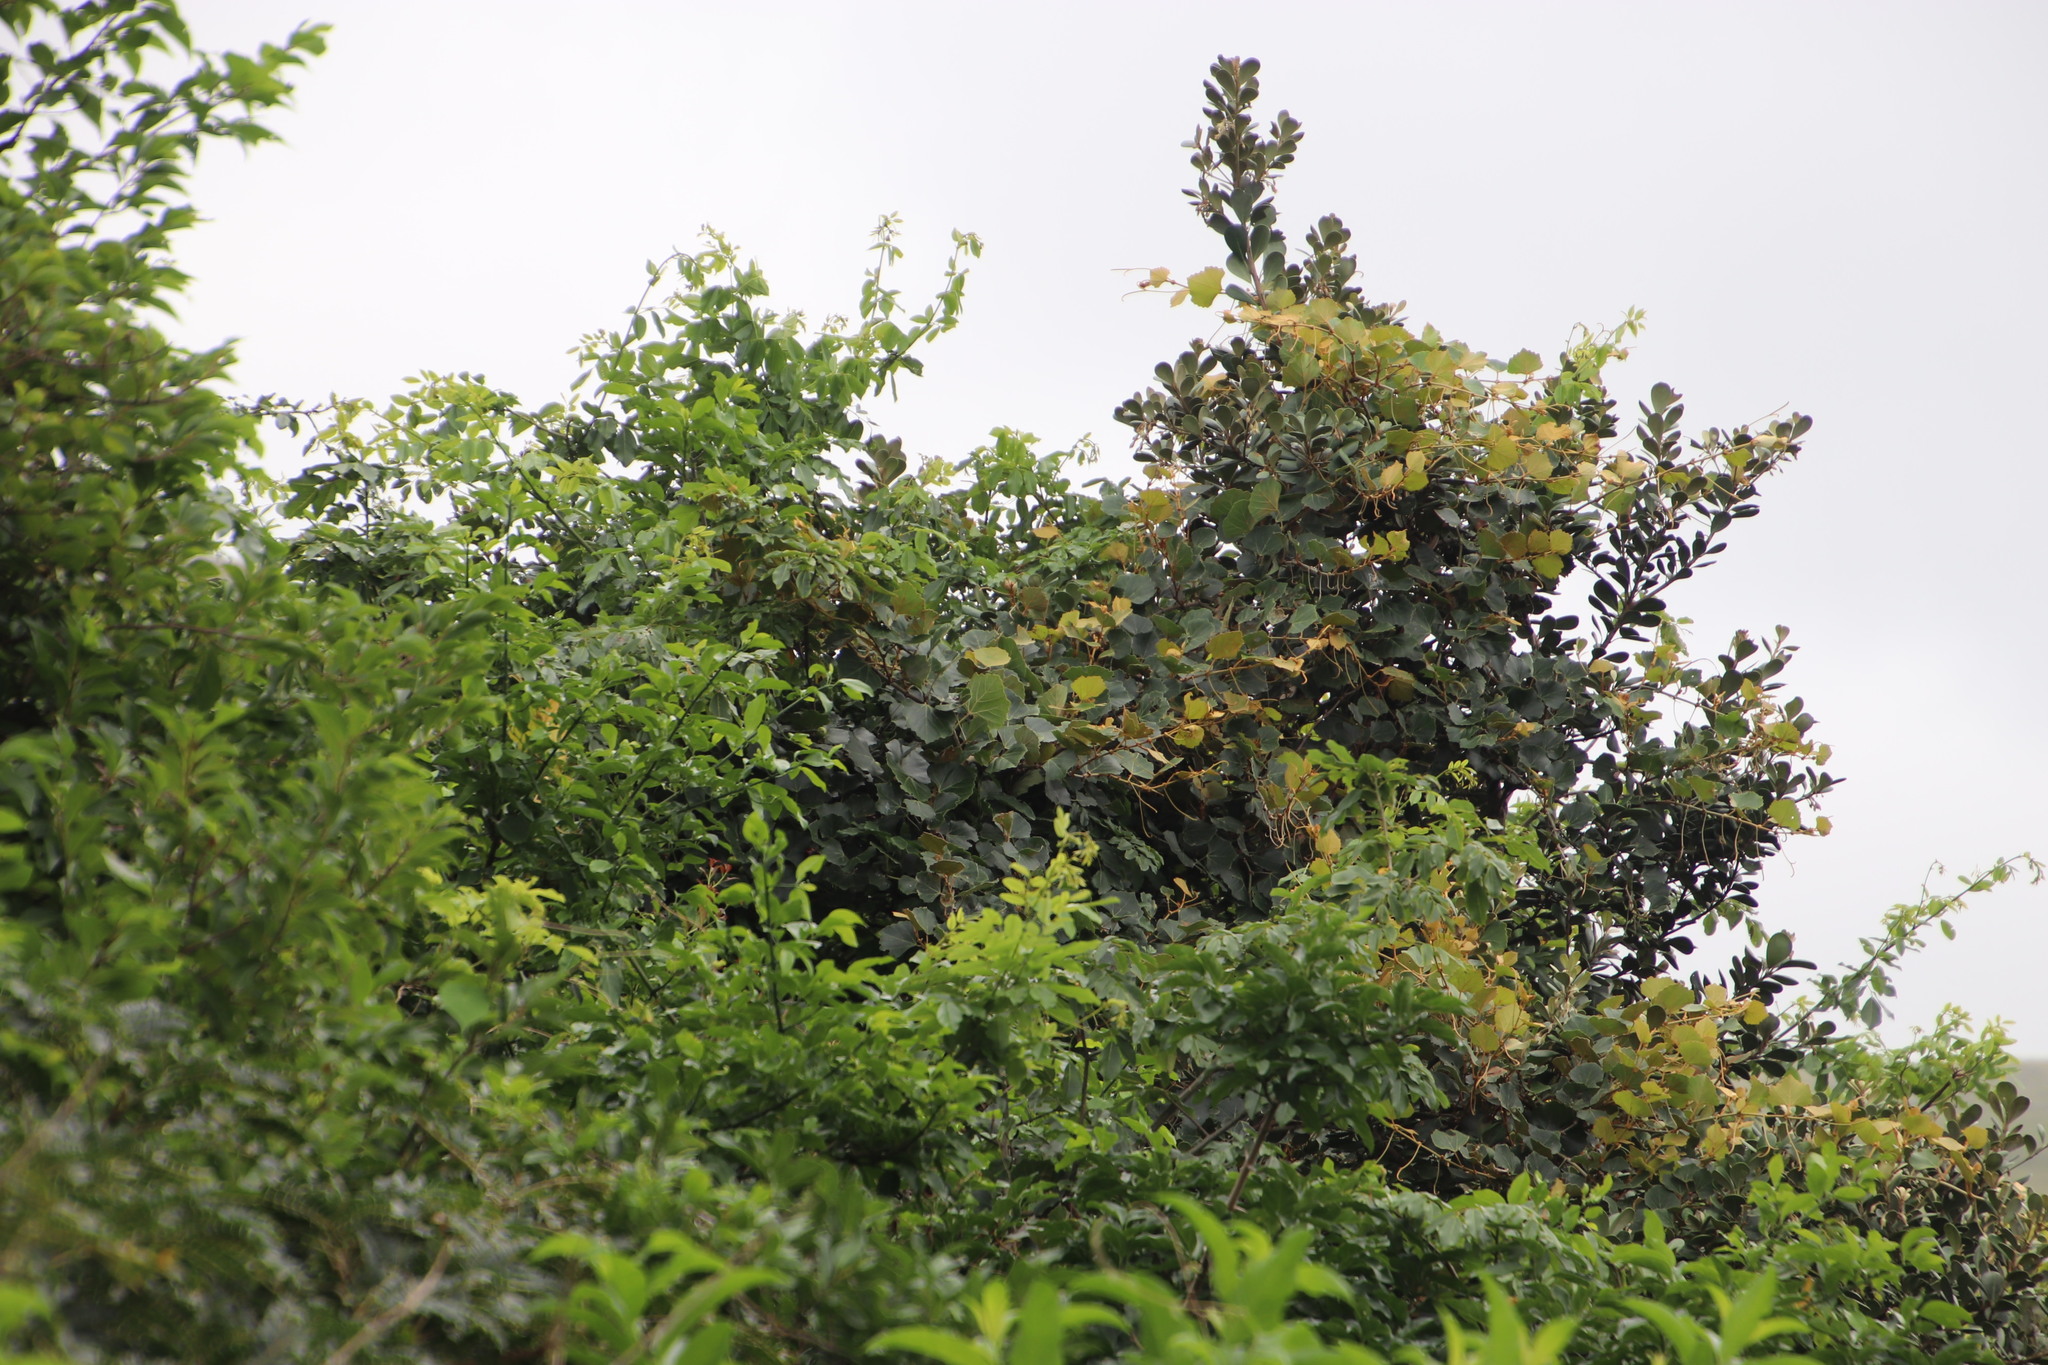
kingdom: Plantae
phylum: Tracheophyta
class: Magnoliopsida
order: Vitales
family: Vitaceae
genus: Rhoicissus
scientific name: Rhoicissus tomentosa
